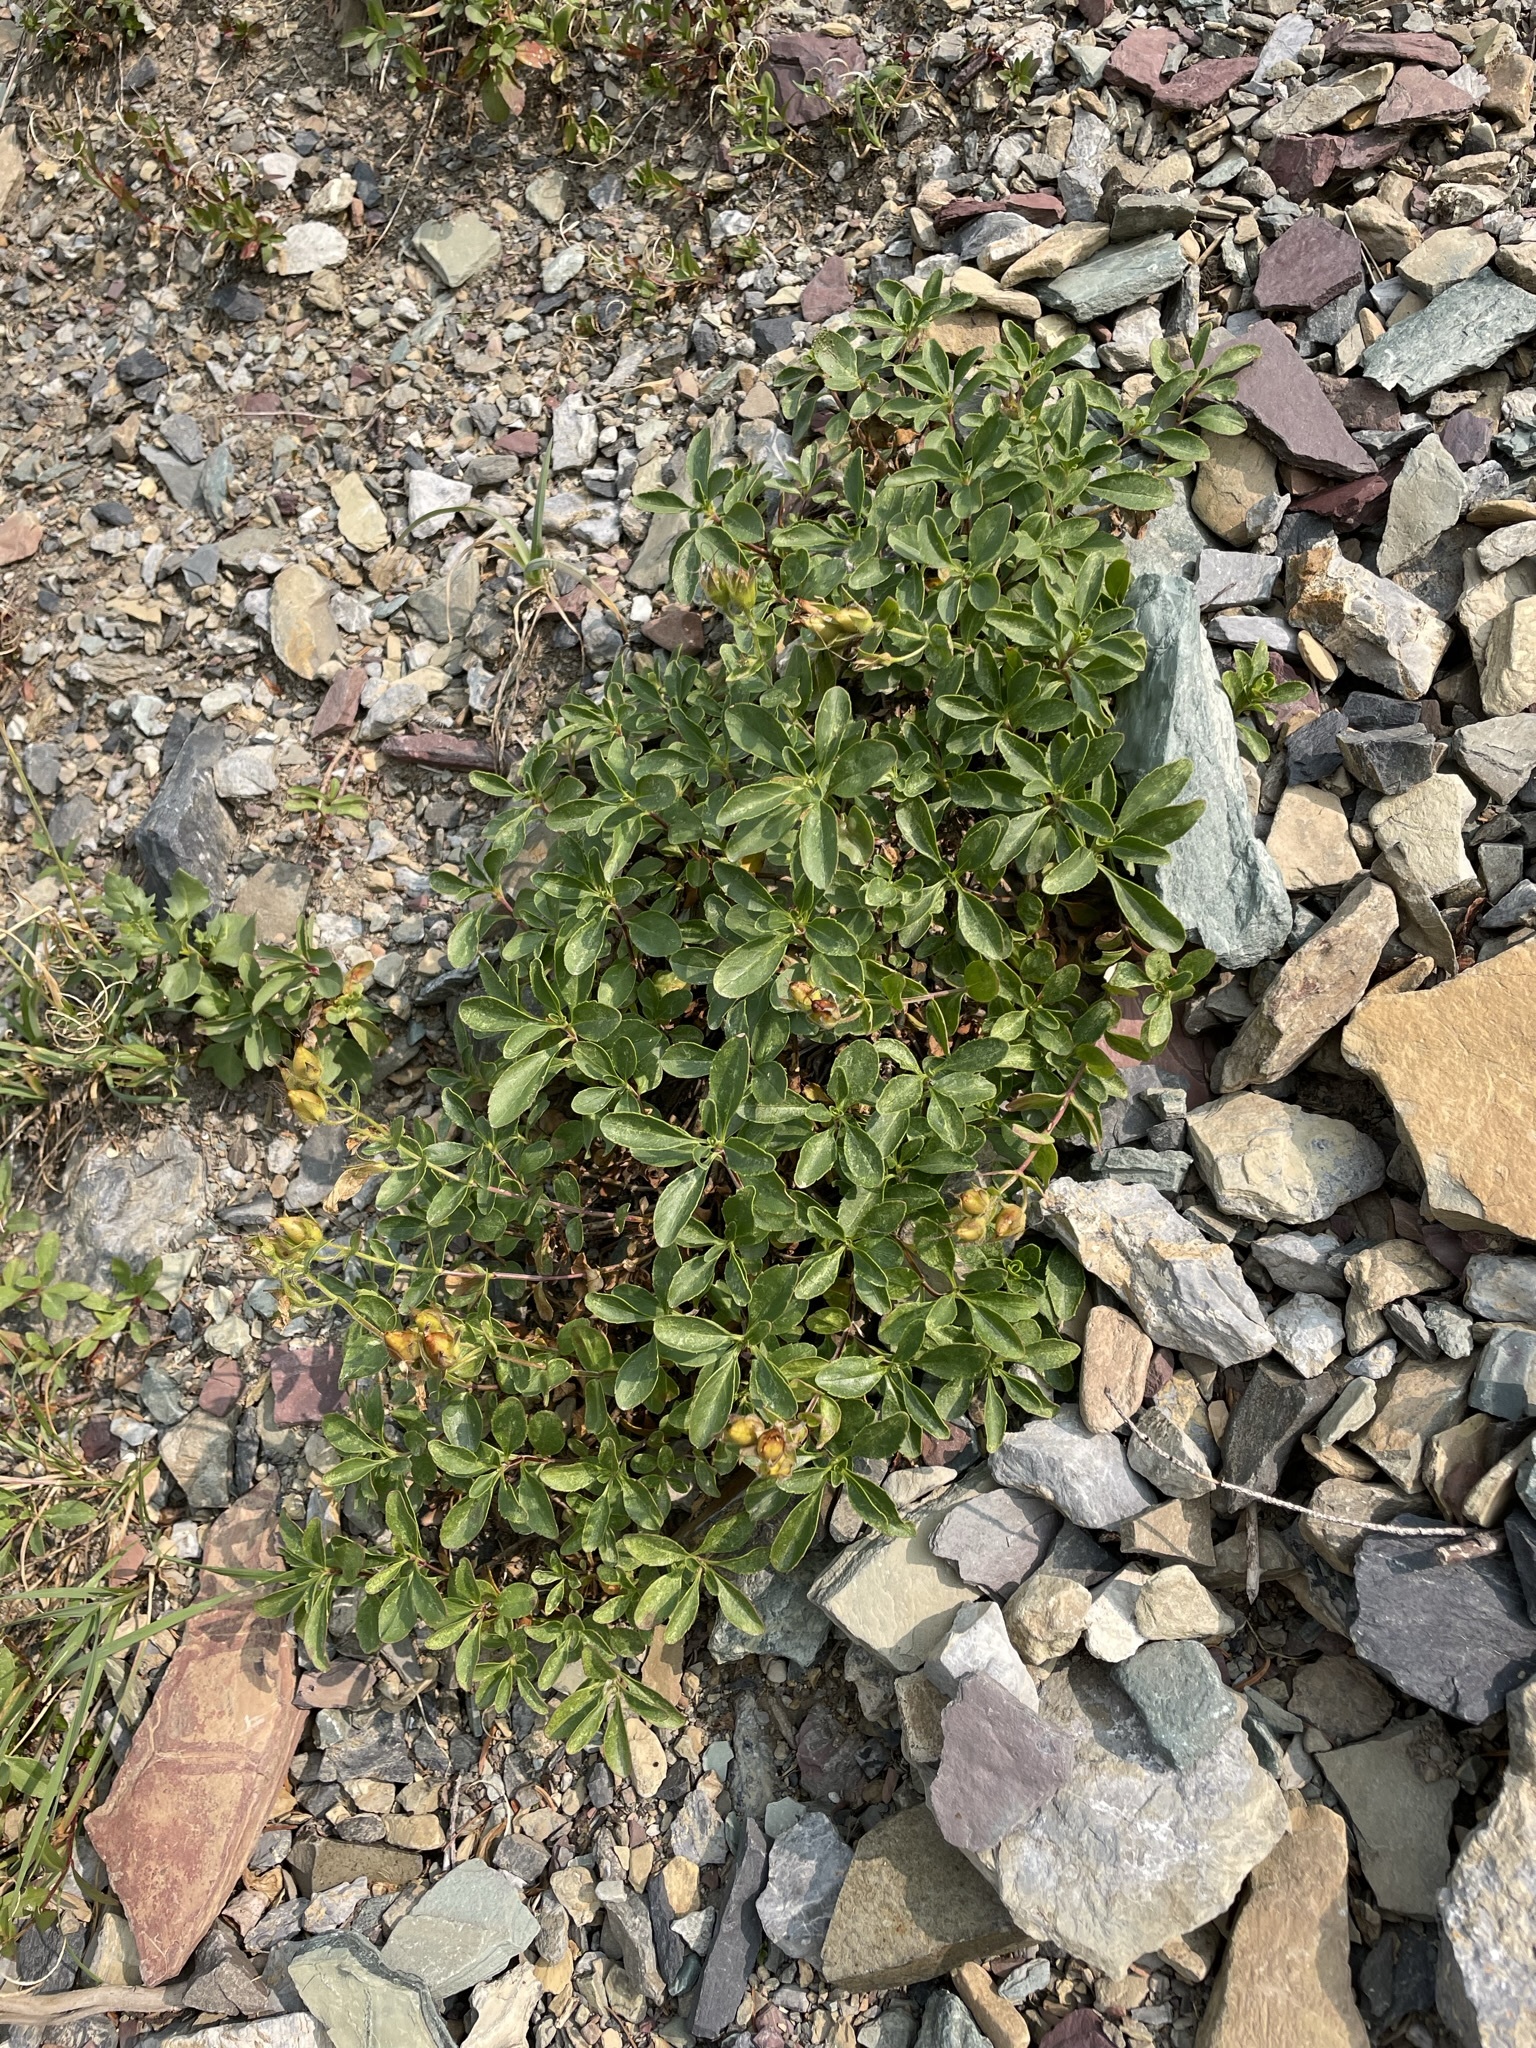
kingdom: Plantae
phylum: Tracheophyta
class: Magnoliopsida
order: Asterales
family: Asteraceae
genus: Senecio
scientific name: Senecio fremontii
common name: Fremont's groundsel
